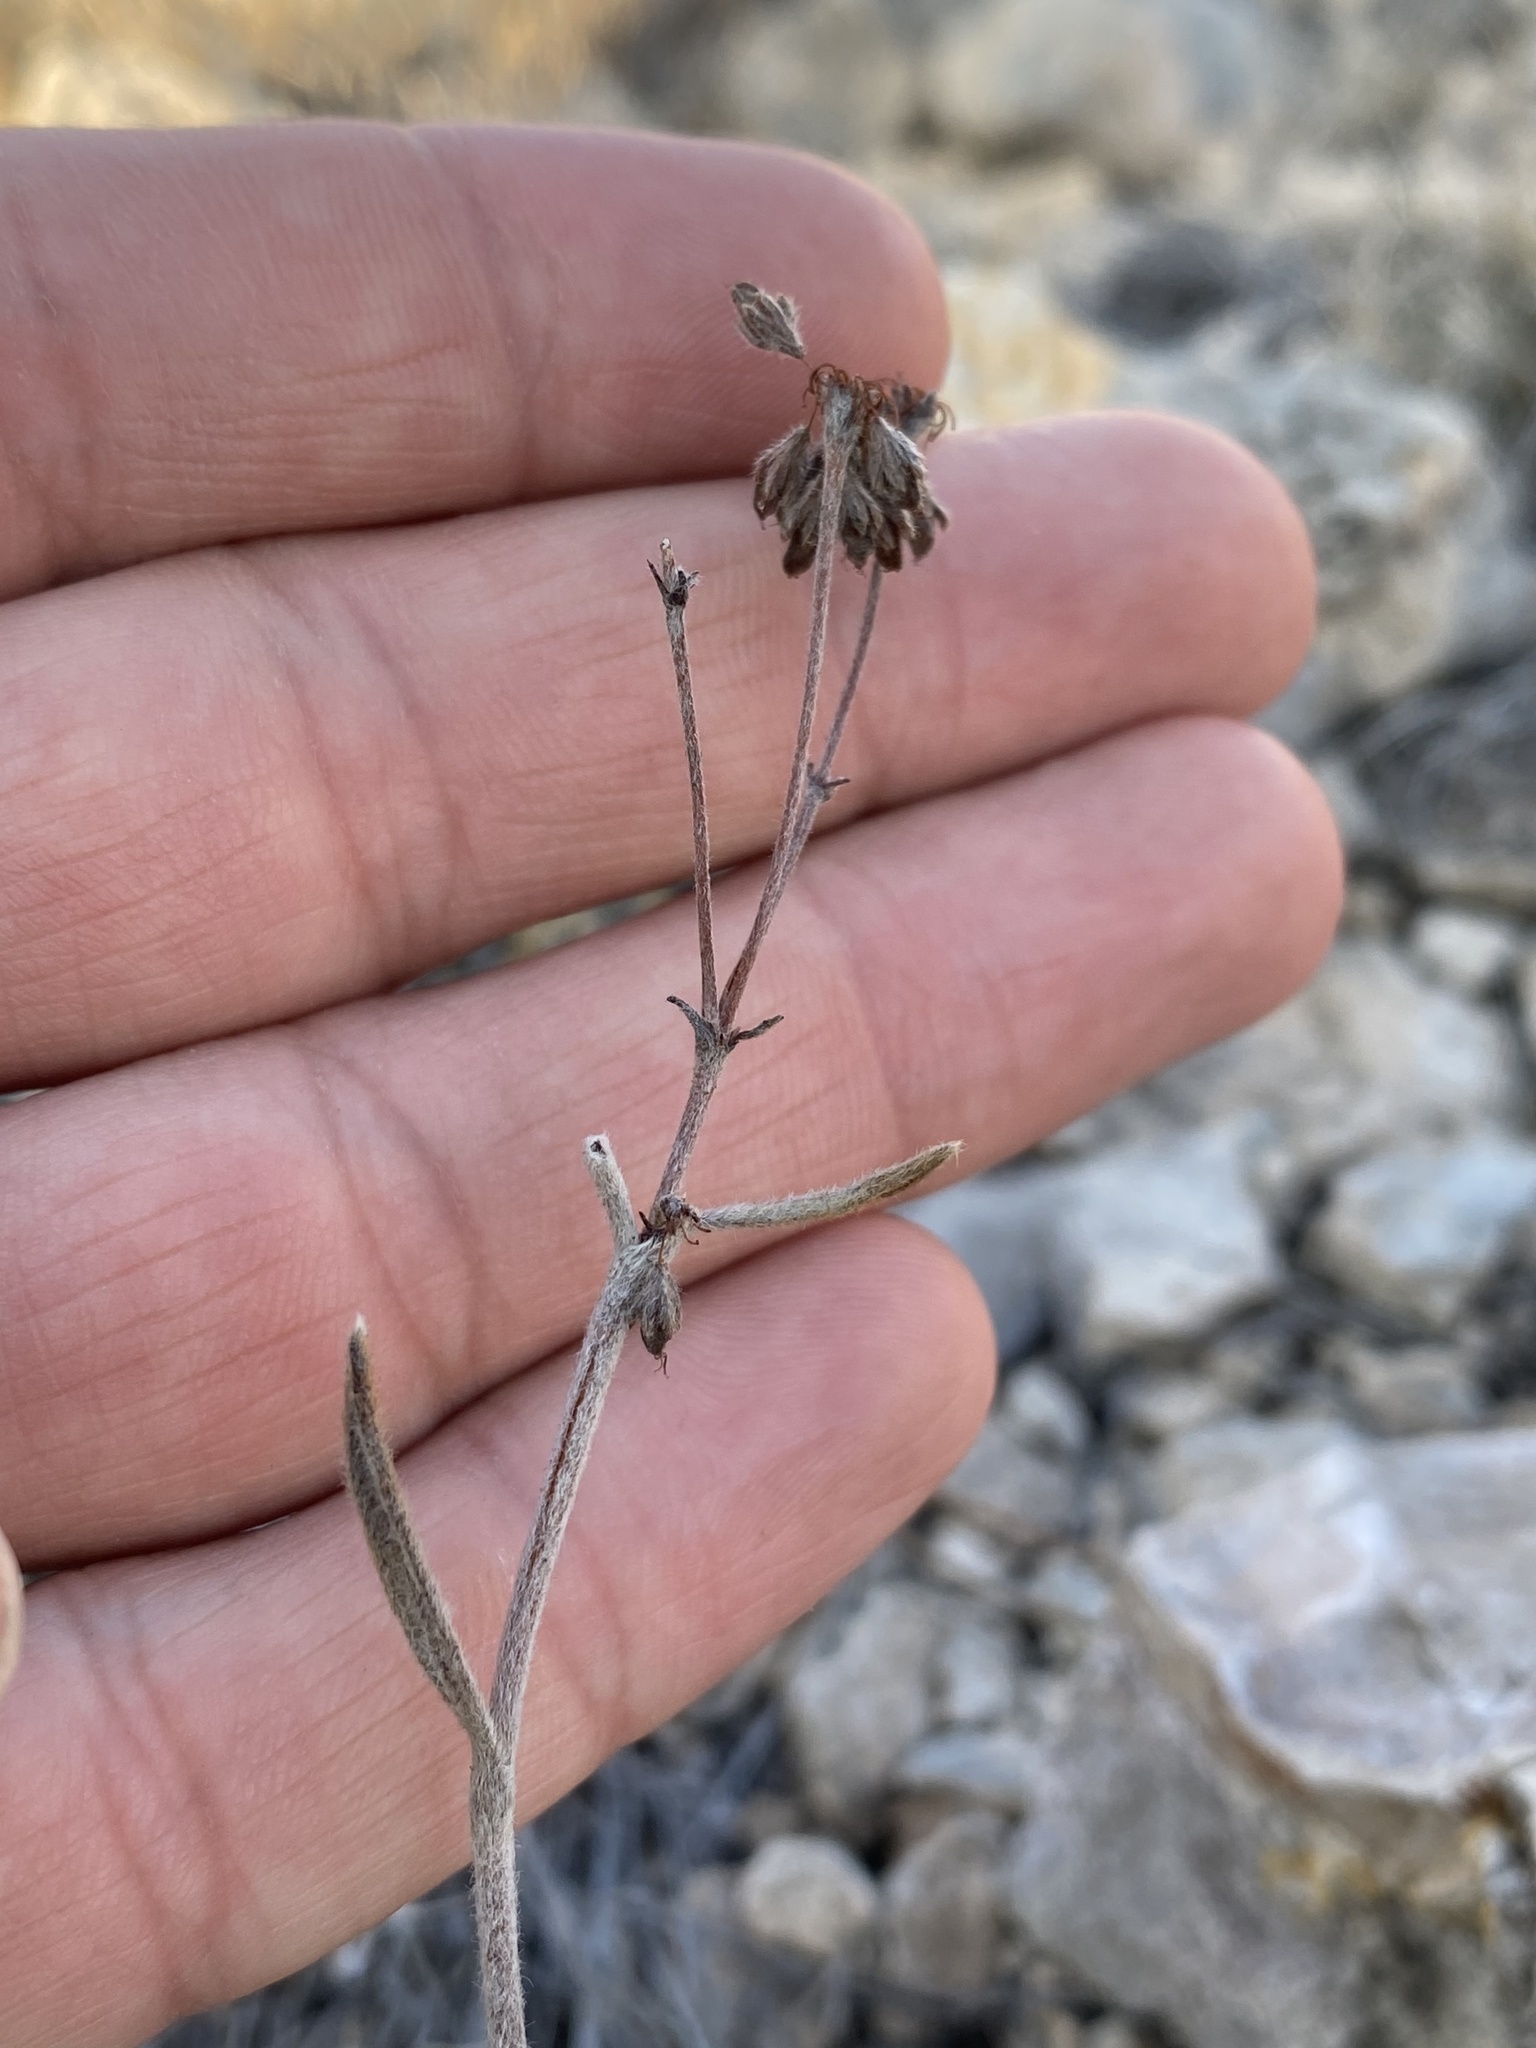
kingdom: Plantae
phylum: Tracheophyta
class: Magnoliopsida
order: Caryophyllales
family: Polygonaceae
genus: Eriogonum
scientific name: Eriogonum hieraciifolium
